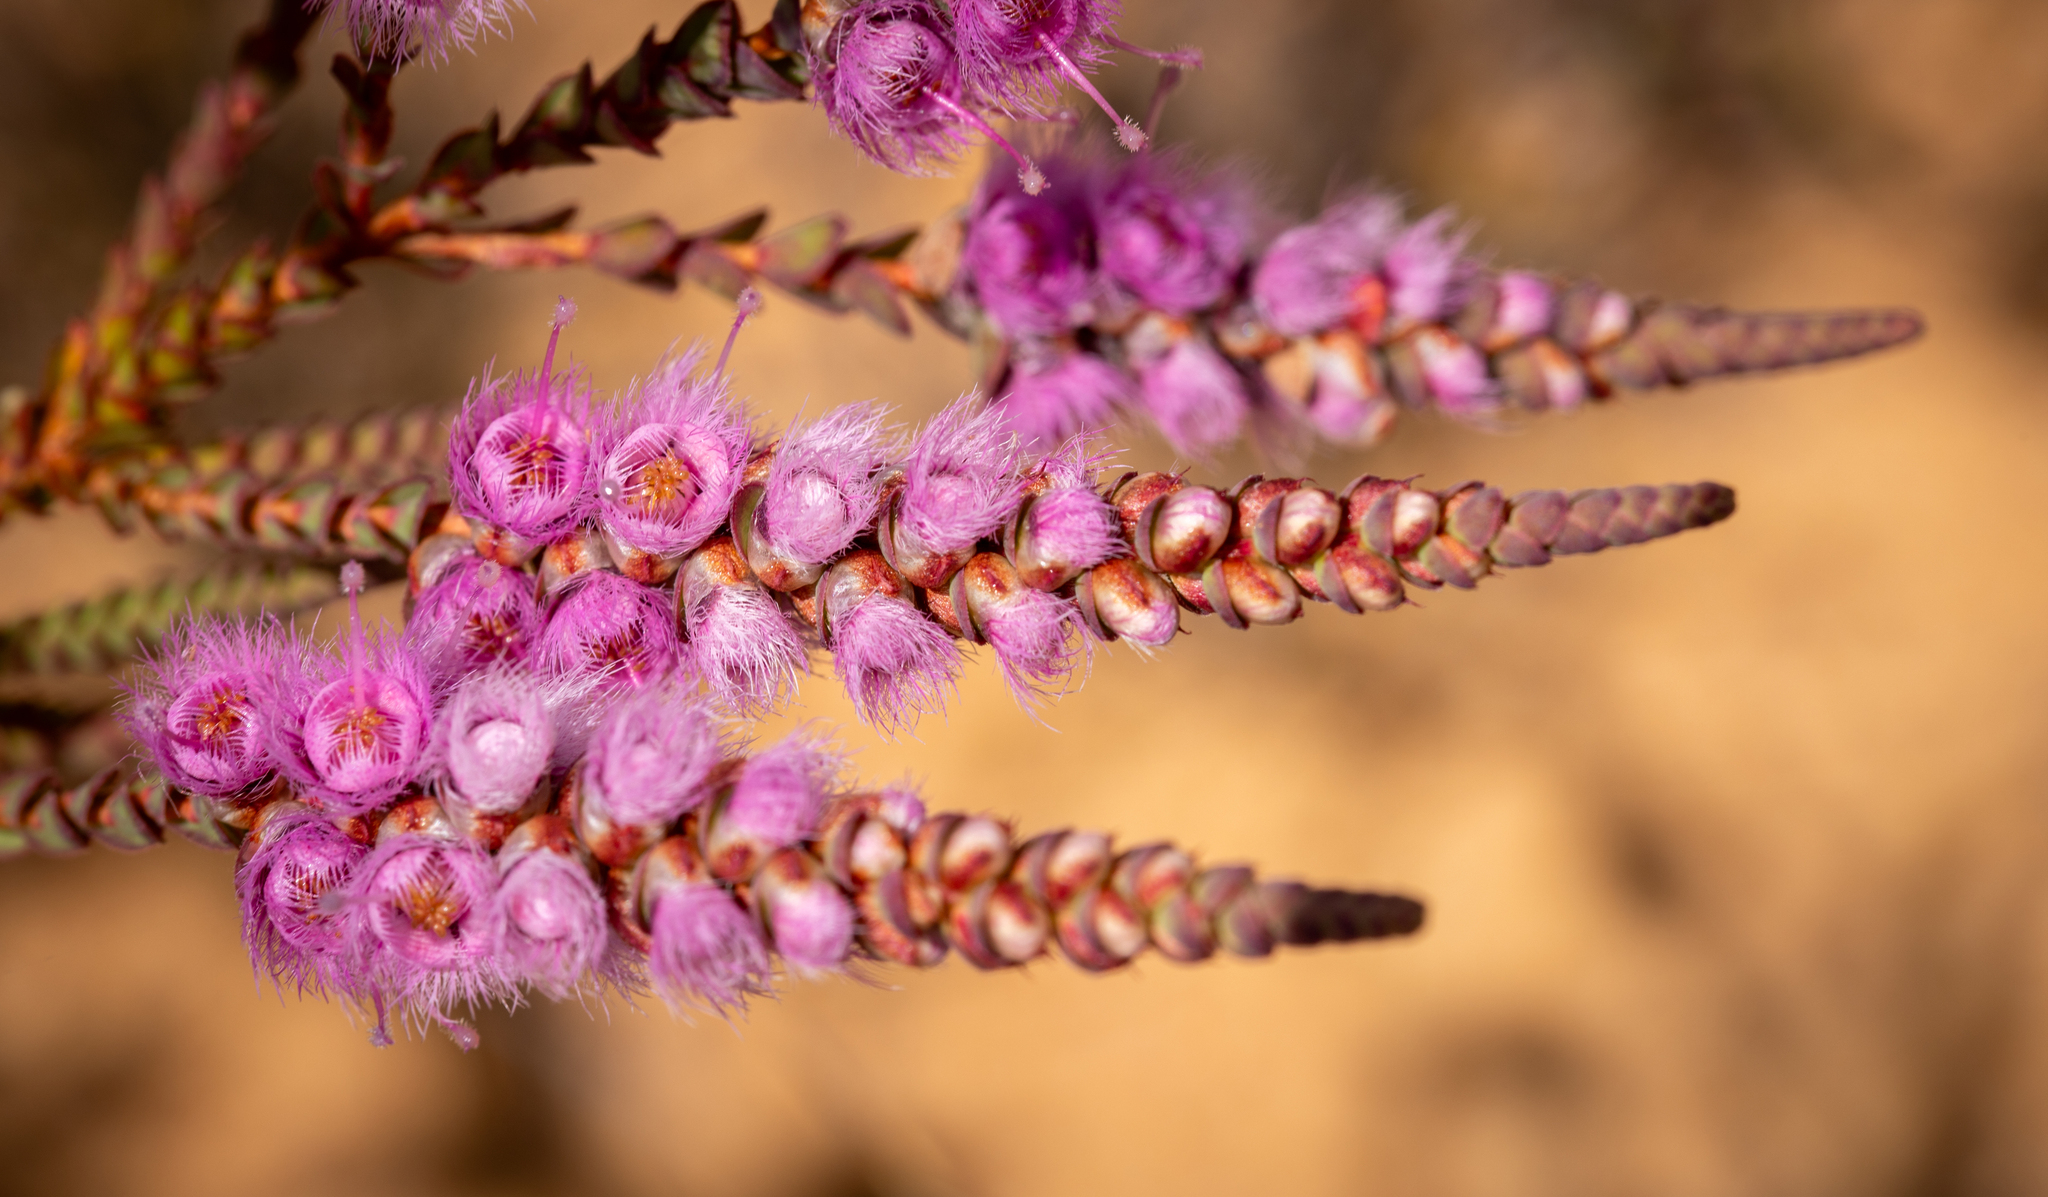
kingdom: Plantae
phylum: Tracheophyta
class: Magnoliopsida
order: Myrtales
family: Myrtaceae
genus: Verticordia
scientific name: Verticordia spicata
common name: Spike feather-flower
